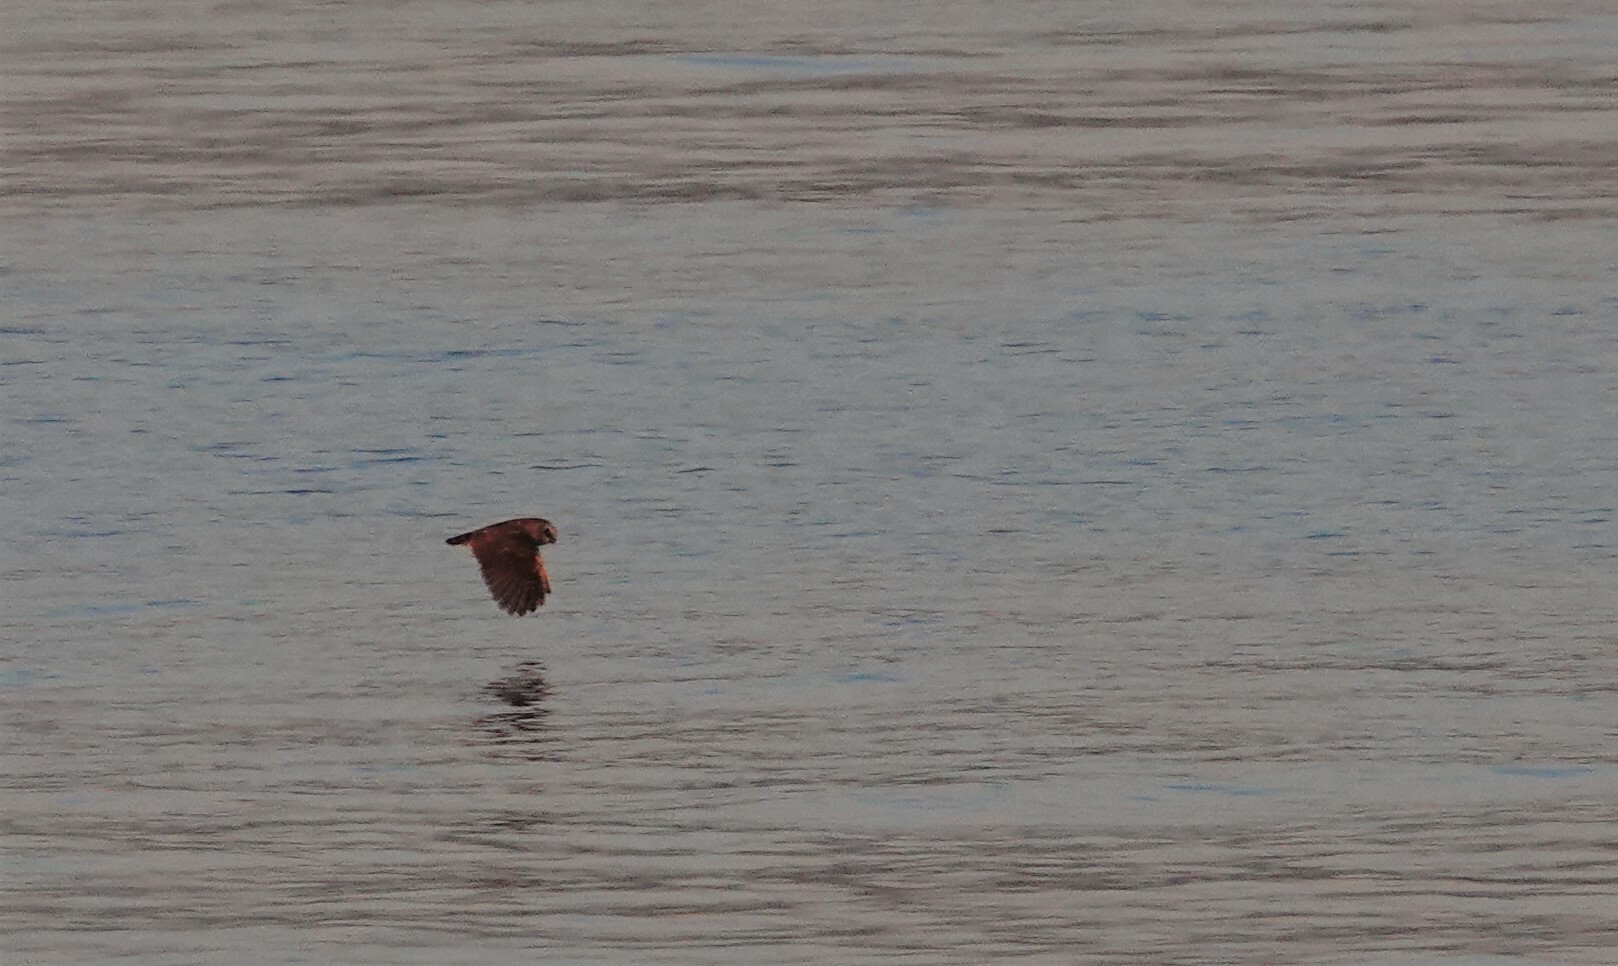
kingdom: Animalia
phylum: Chordata
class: Aves
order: Strigiformes
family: Strigidae
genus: Aegolius
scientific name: Aegolius acadicus
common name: Northern saw-whet owl
